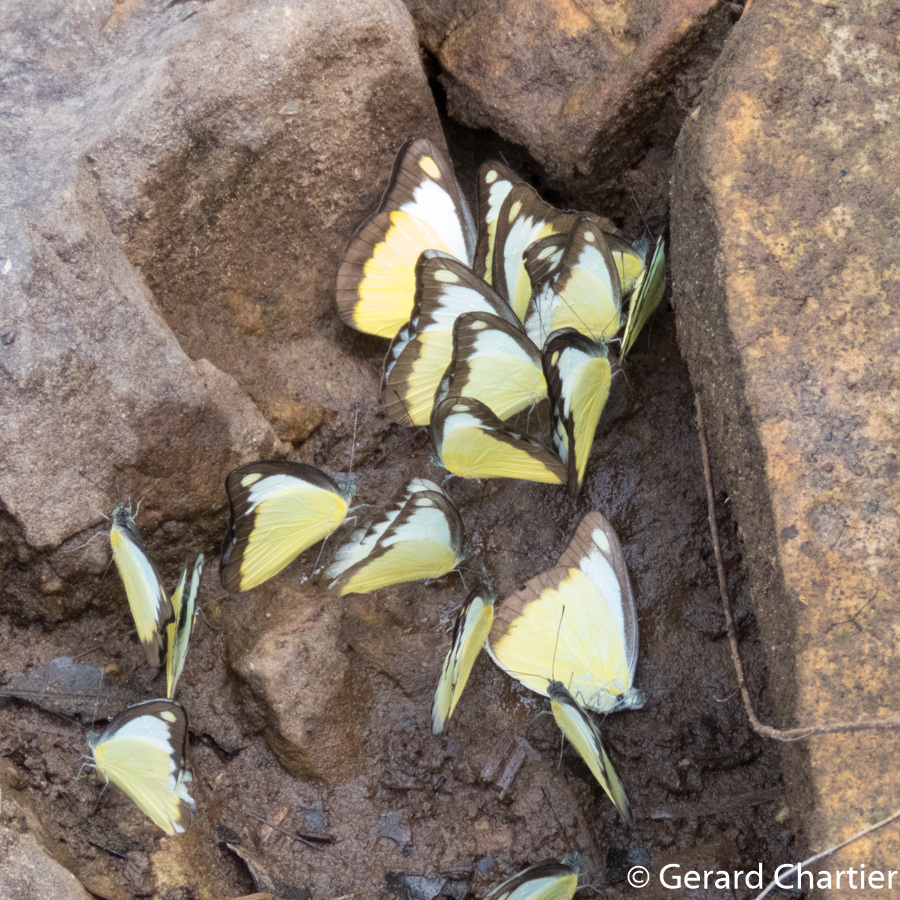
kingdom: Animalia
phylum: Arthropoda
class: Insecta
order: Lepidoptera
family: Pieridae
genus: Appias
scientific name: Appias lyncida
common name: Chocolate albatross
